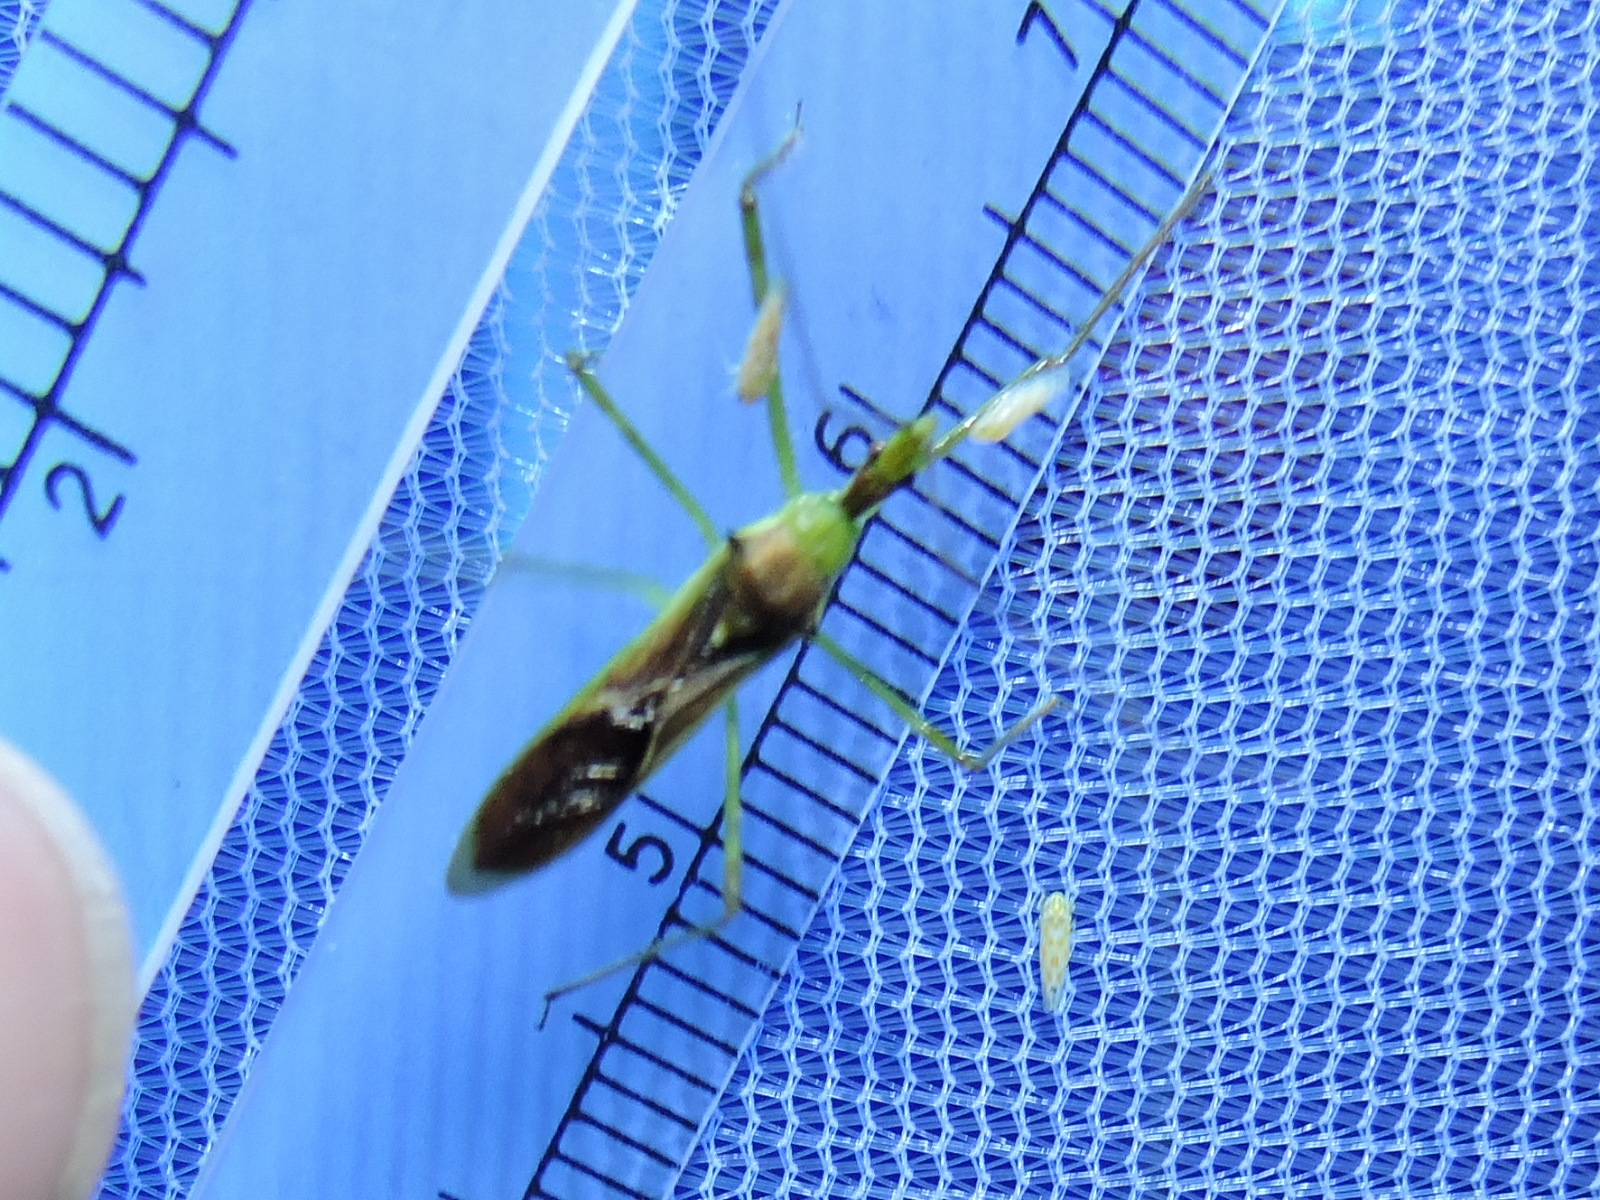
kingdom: Animalia
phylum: Arthropoda
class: Insecta
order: Hemiptera
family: Reduviidae
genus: Zelus
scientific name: Zelus luridus
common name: Pale green assassin bug
